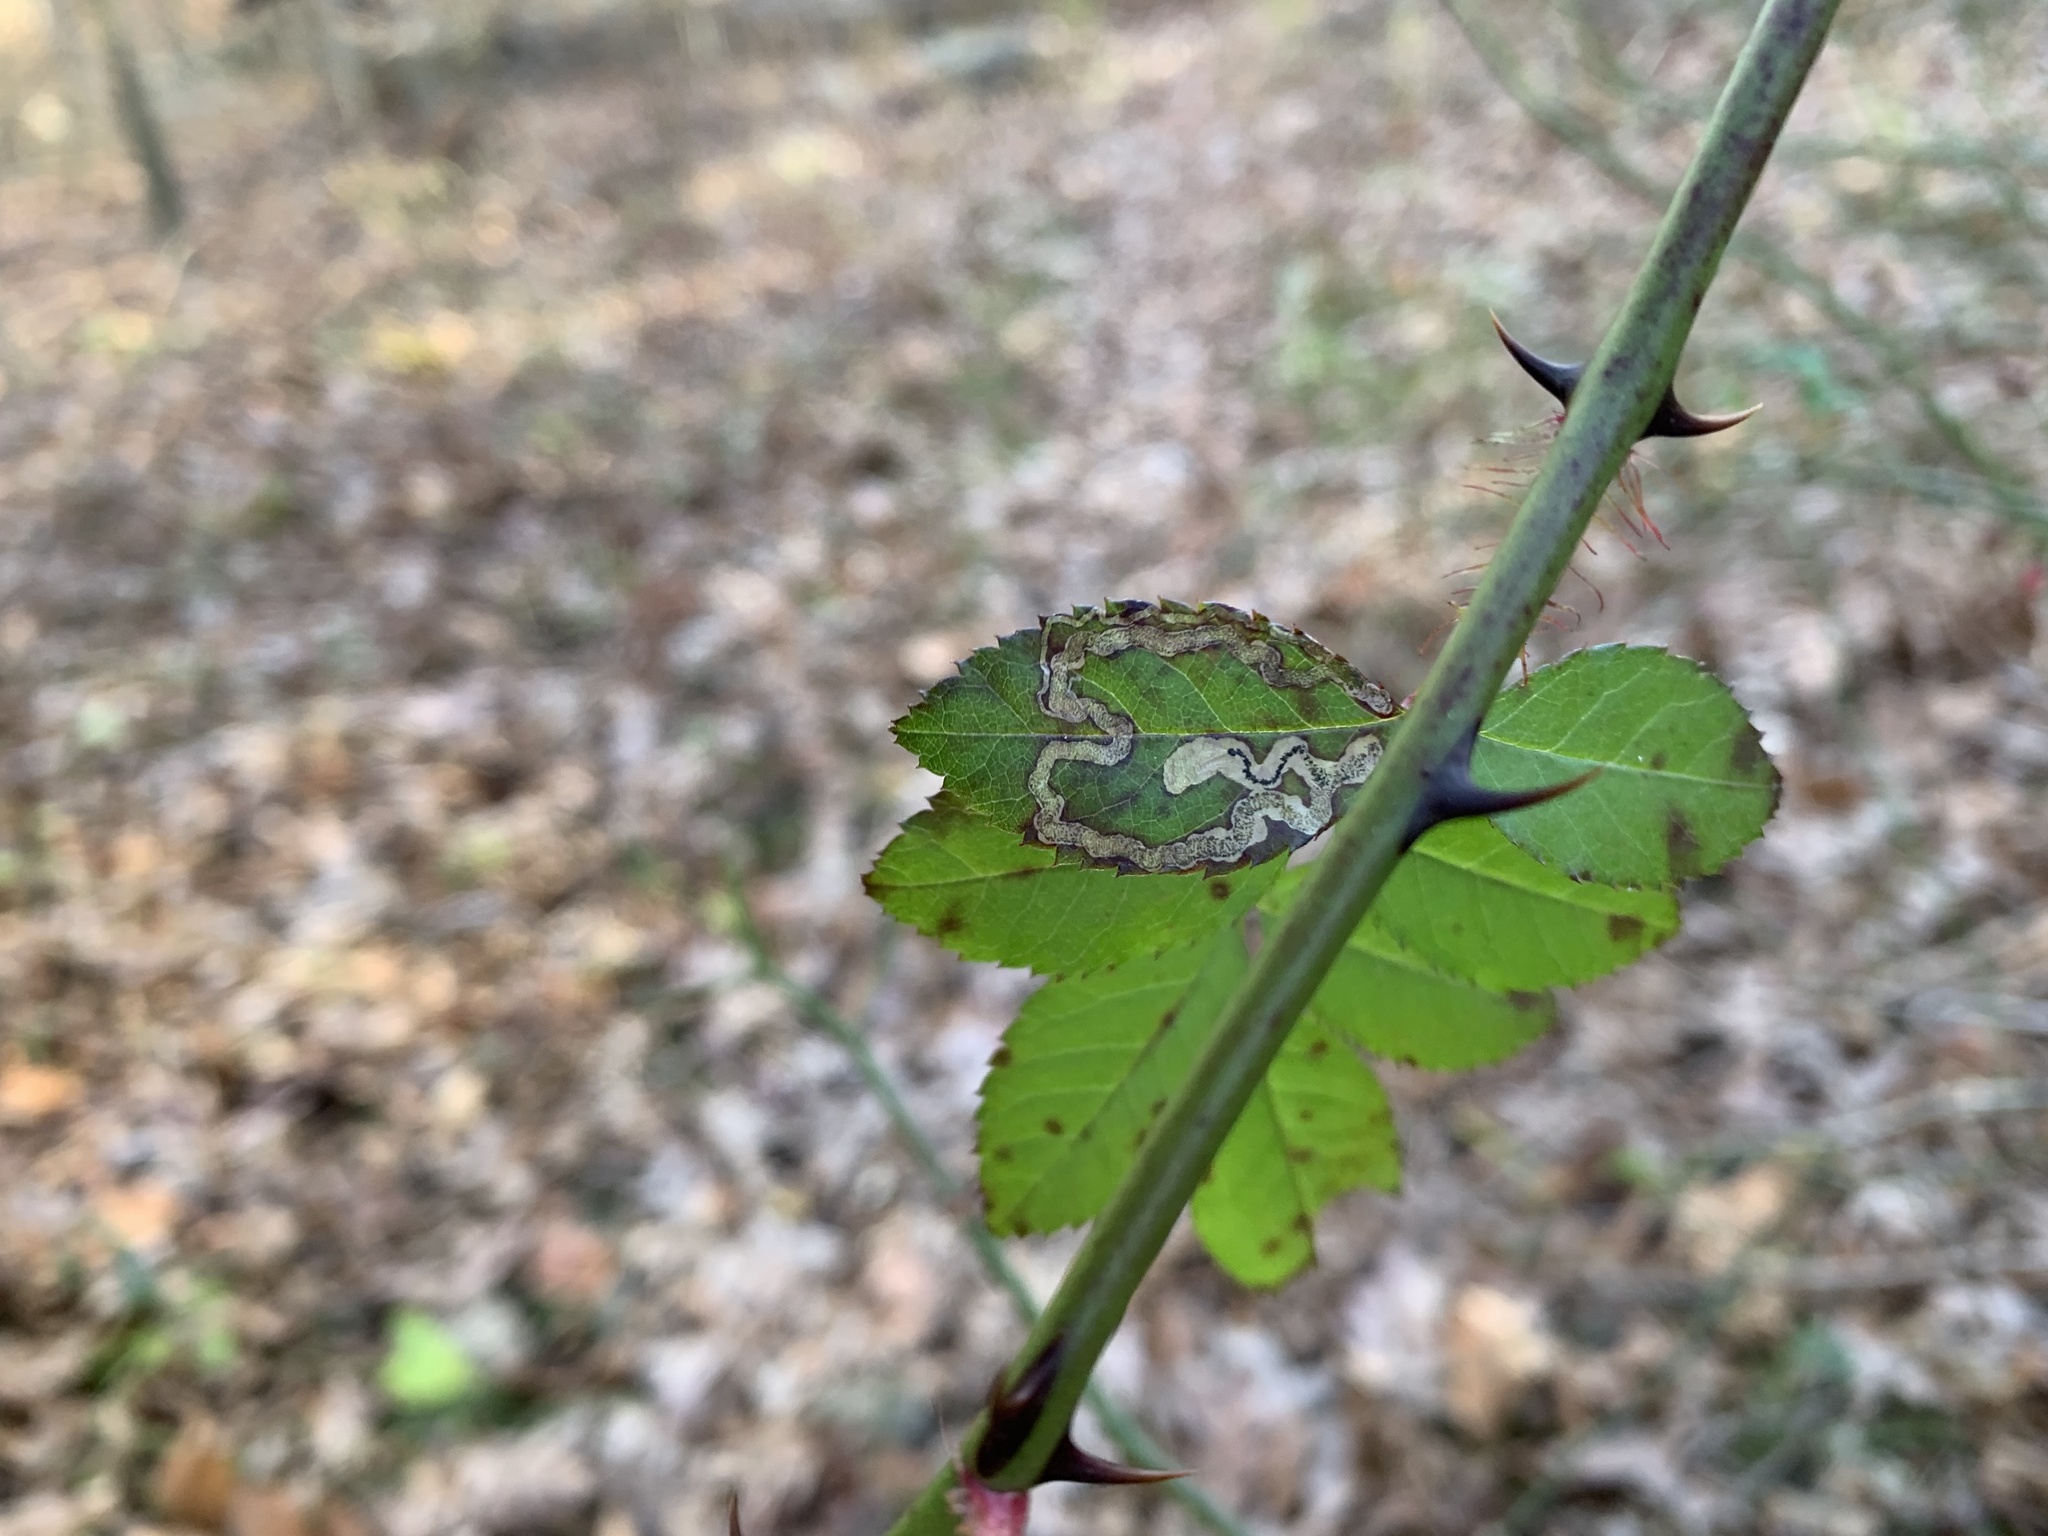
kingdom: Animalia
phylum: Arthropoda
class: Insecta
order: Lepidoptera
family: Nepticulidae
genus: Stigmella
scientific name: Stigmella rosaefoliella
